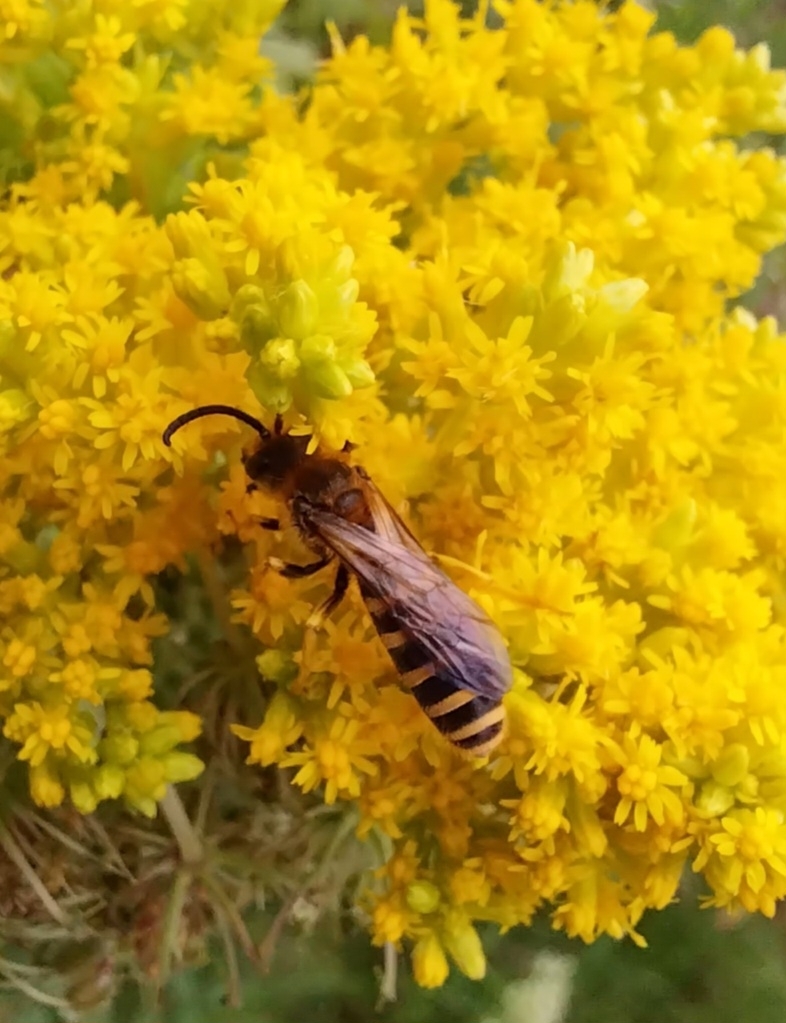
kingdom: Animalia
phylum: Arthropoda
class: Insecta
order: Hymenoptera
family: Halictidae
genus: Halictus
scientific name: Halictus scabiosae
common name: Great banded furrow bee
